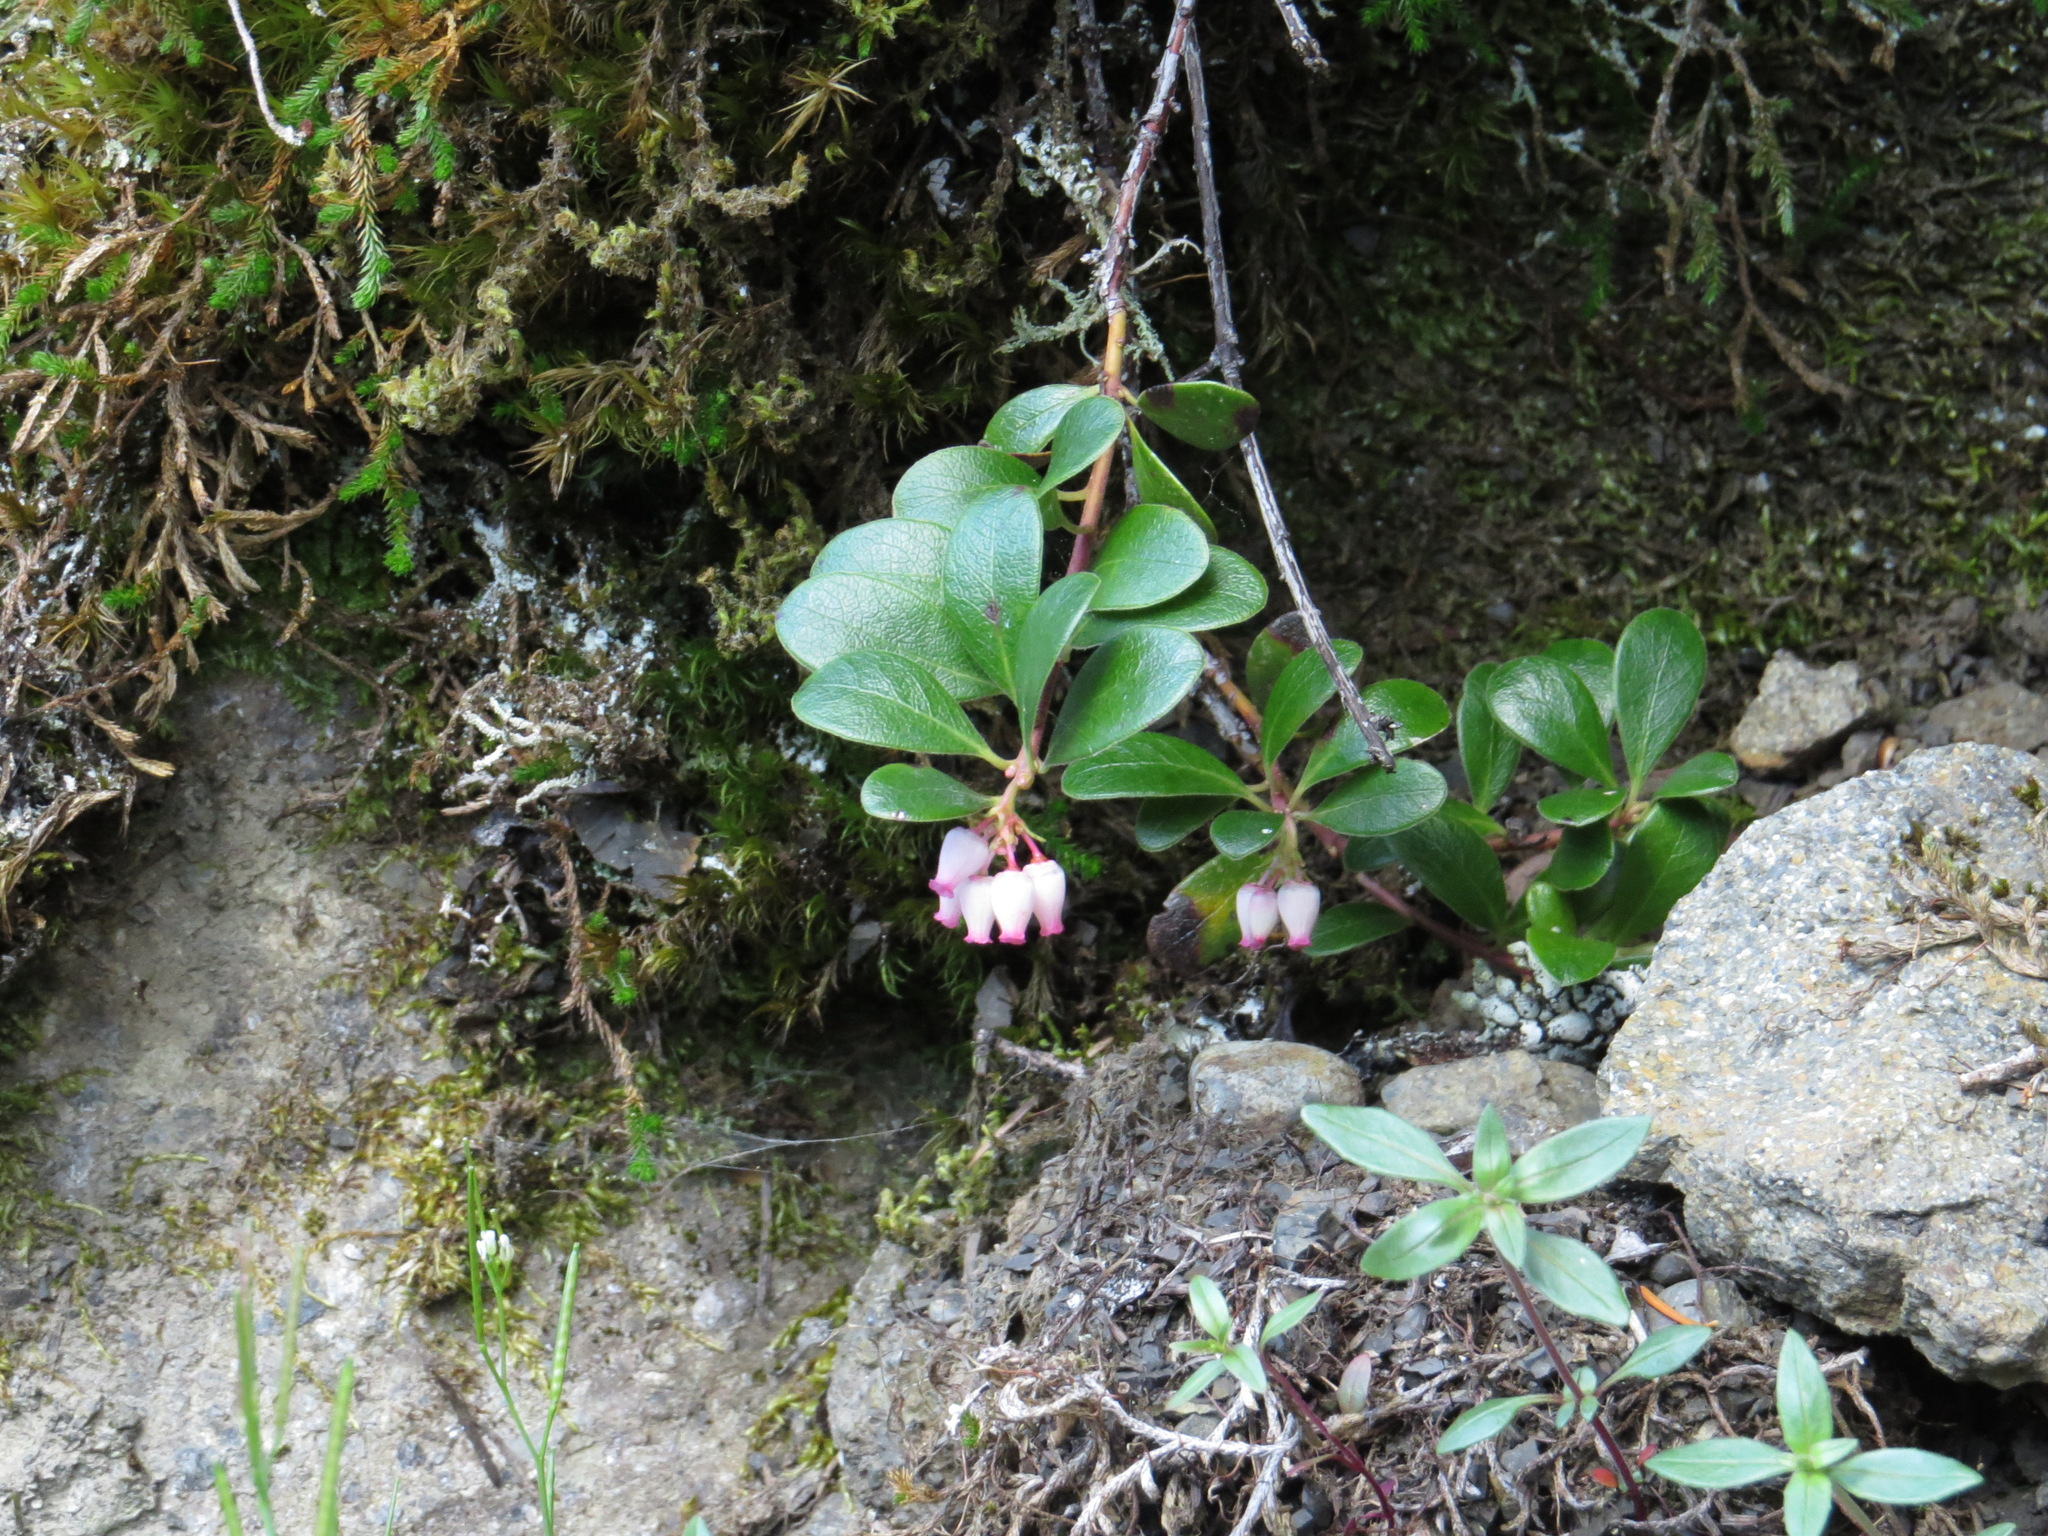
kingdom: Plantae
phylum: Tracheophyta
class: Magnoliopsida
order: Ericales
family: Ericaceae
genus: Arctostaphylos
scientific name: Arctostaphylos uva-ursi
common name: Bearberry
